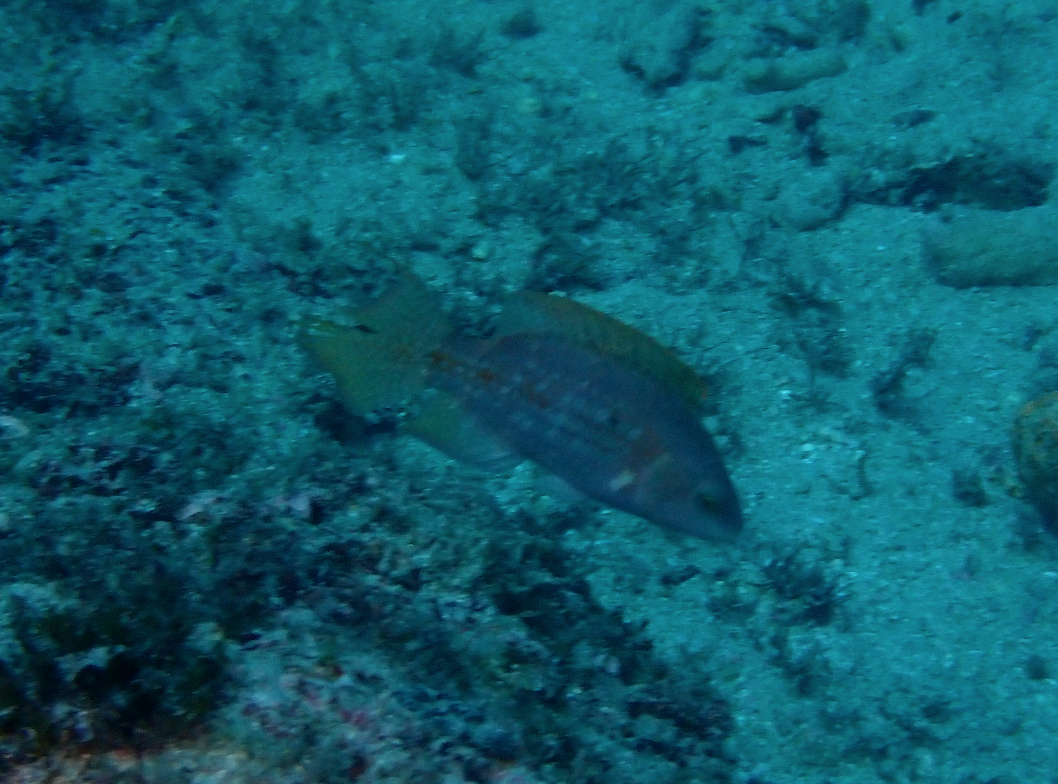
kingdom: Animalia
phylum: Chordata
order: Perciformes
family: Labridae
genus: Oxycheilinus
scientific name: Oxycheilinus bimaculatus
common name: Comettailed wrasse
